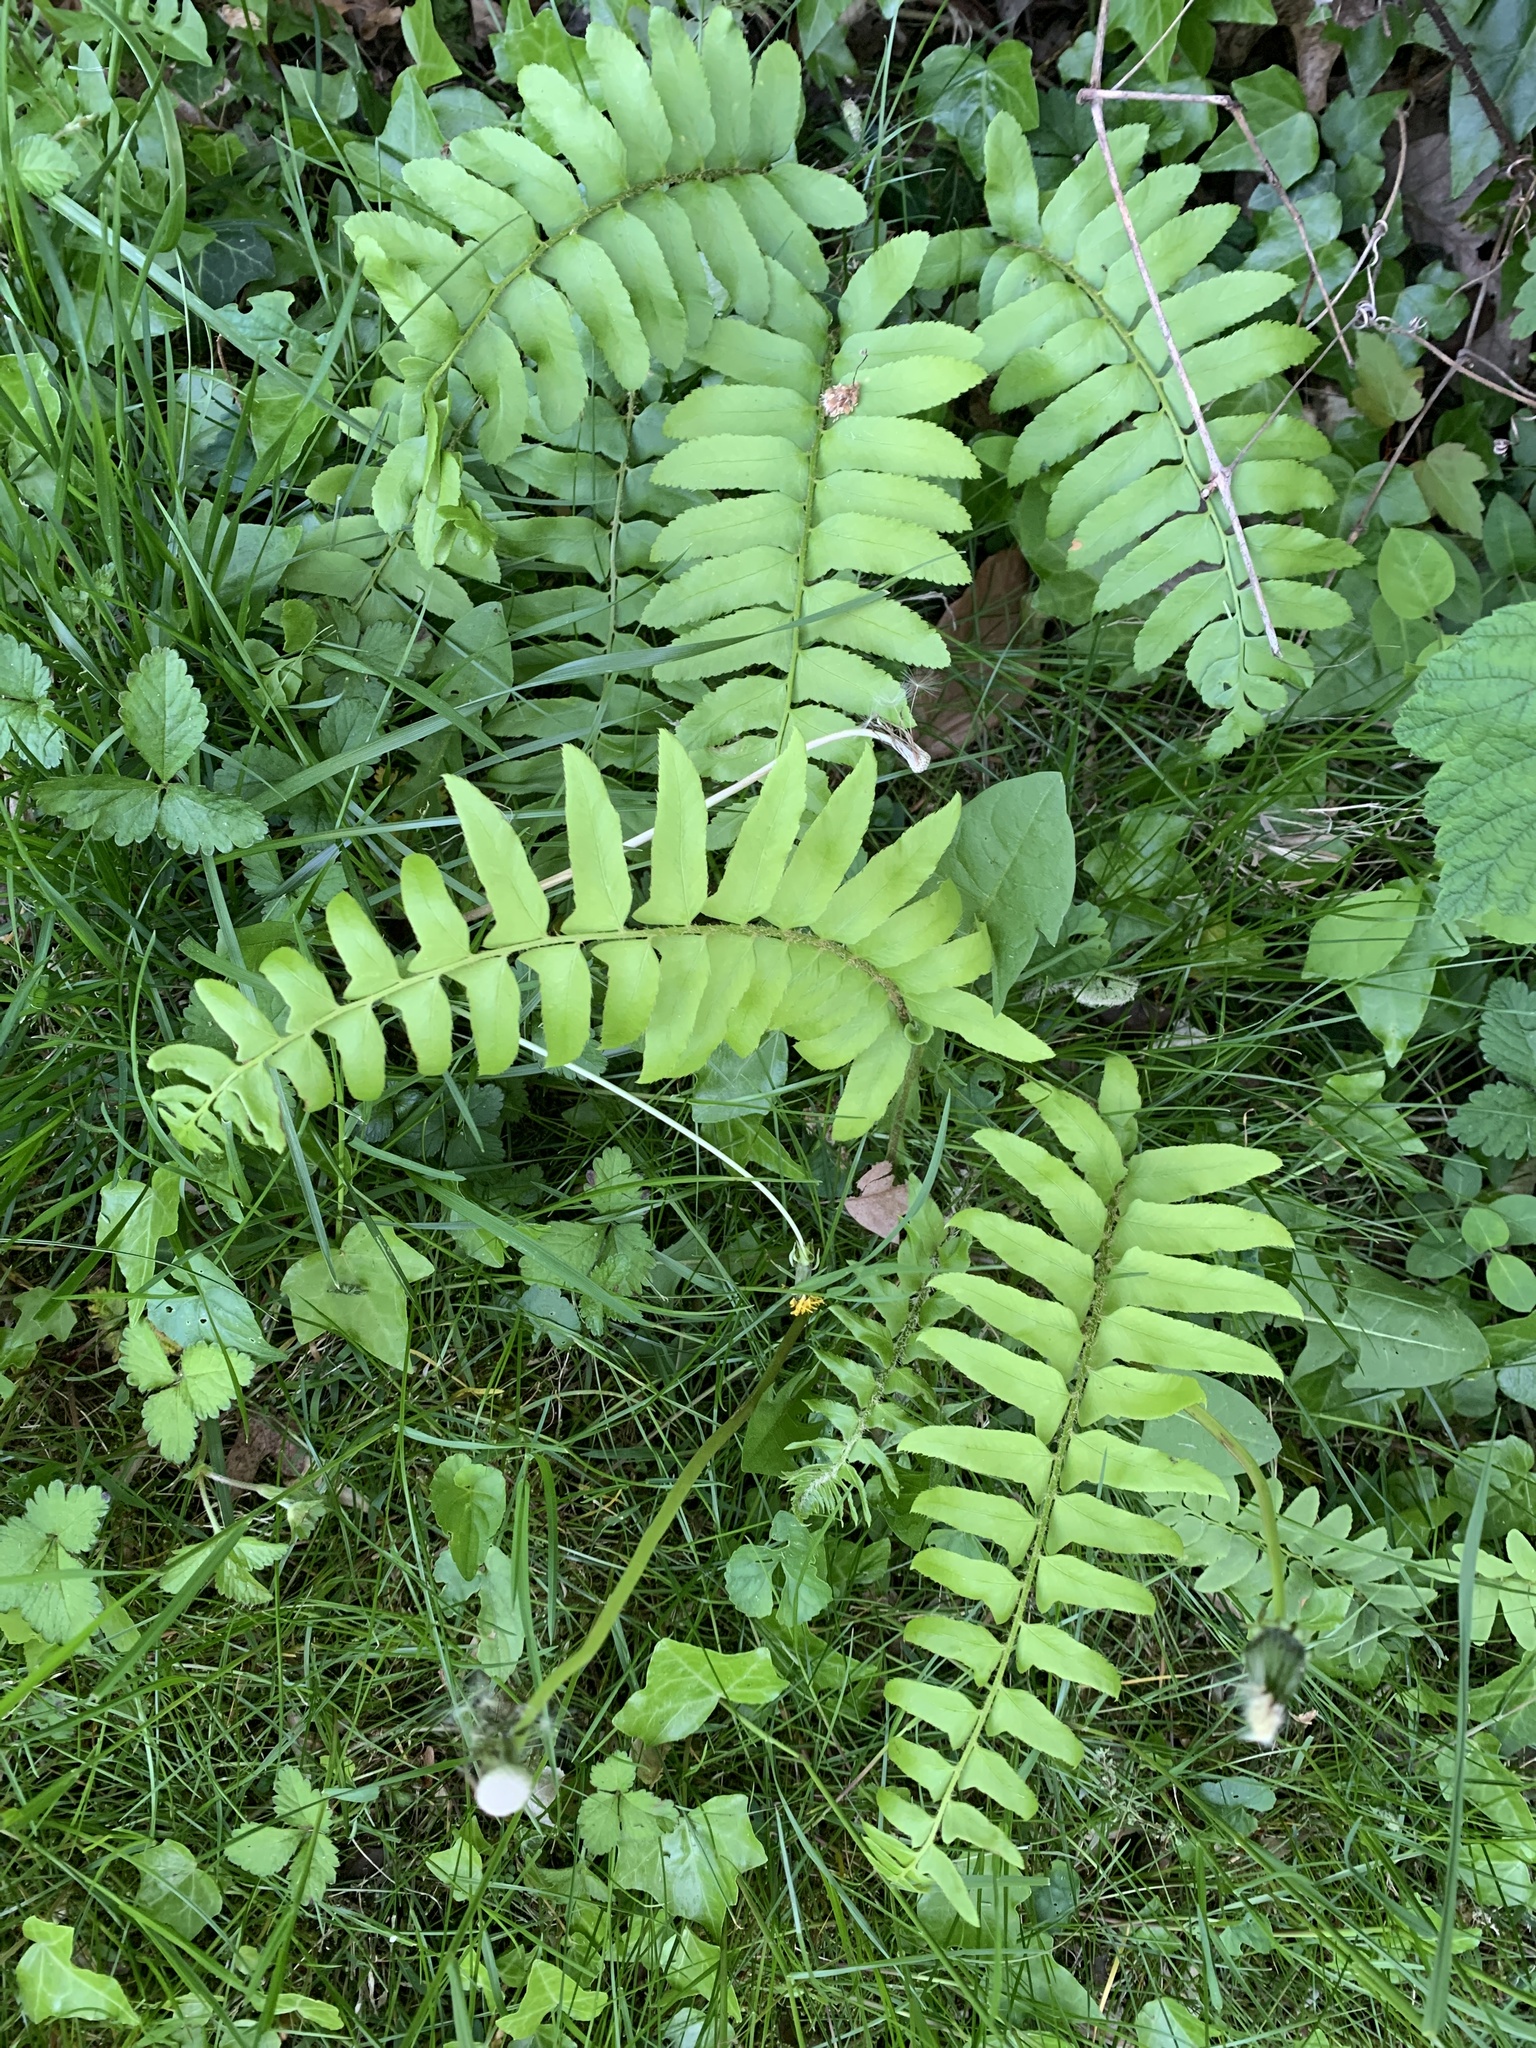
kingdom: Plantae
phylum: Tracheophyta
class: Polypodiopsida
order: Polypodiales
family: Dryopteridaceae
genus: Polystichum
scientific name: Polystichum acrostichoides
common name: Christmas fern
